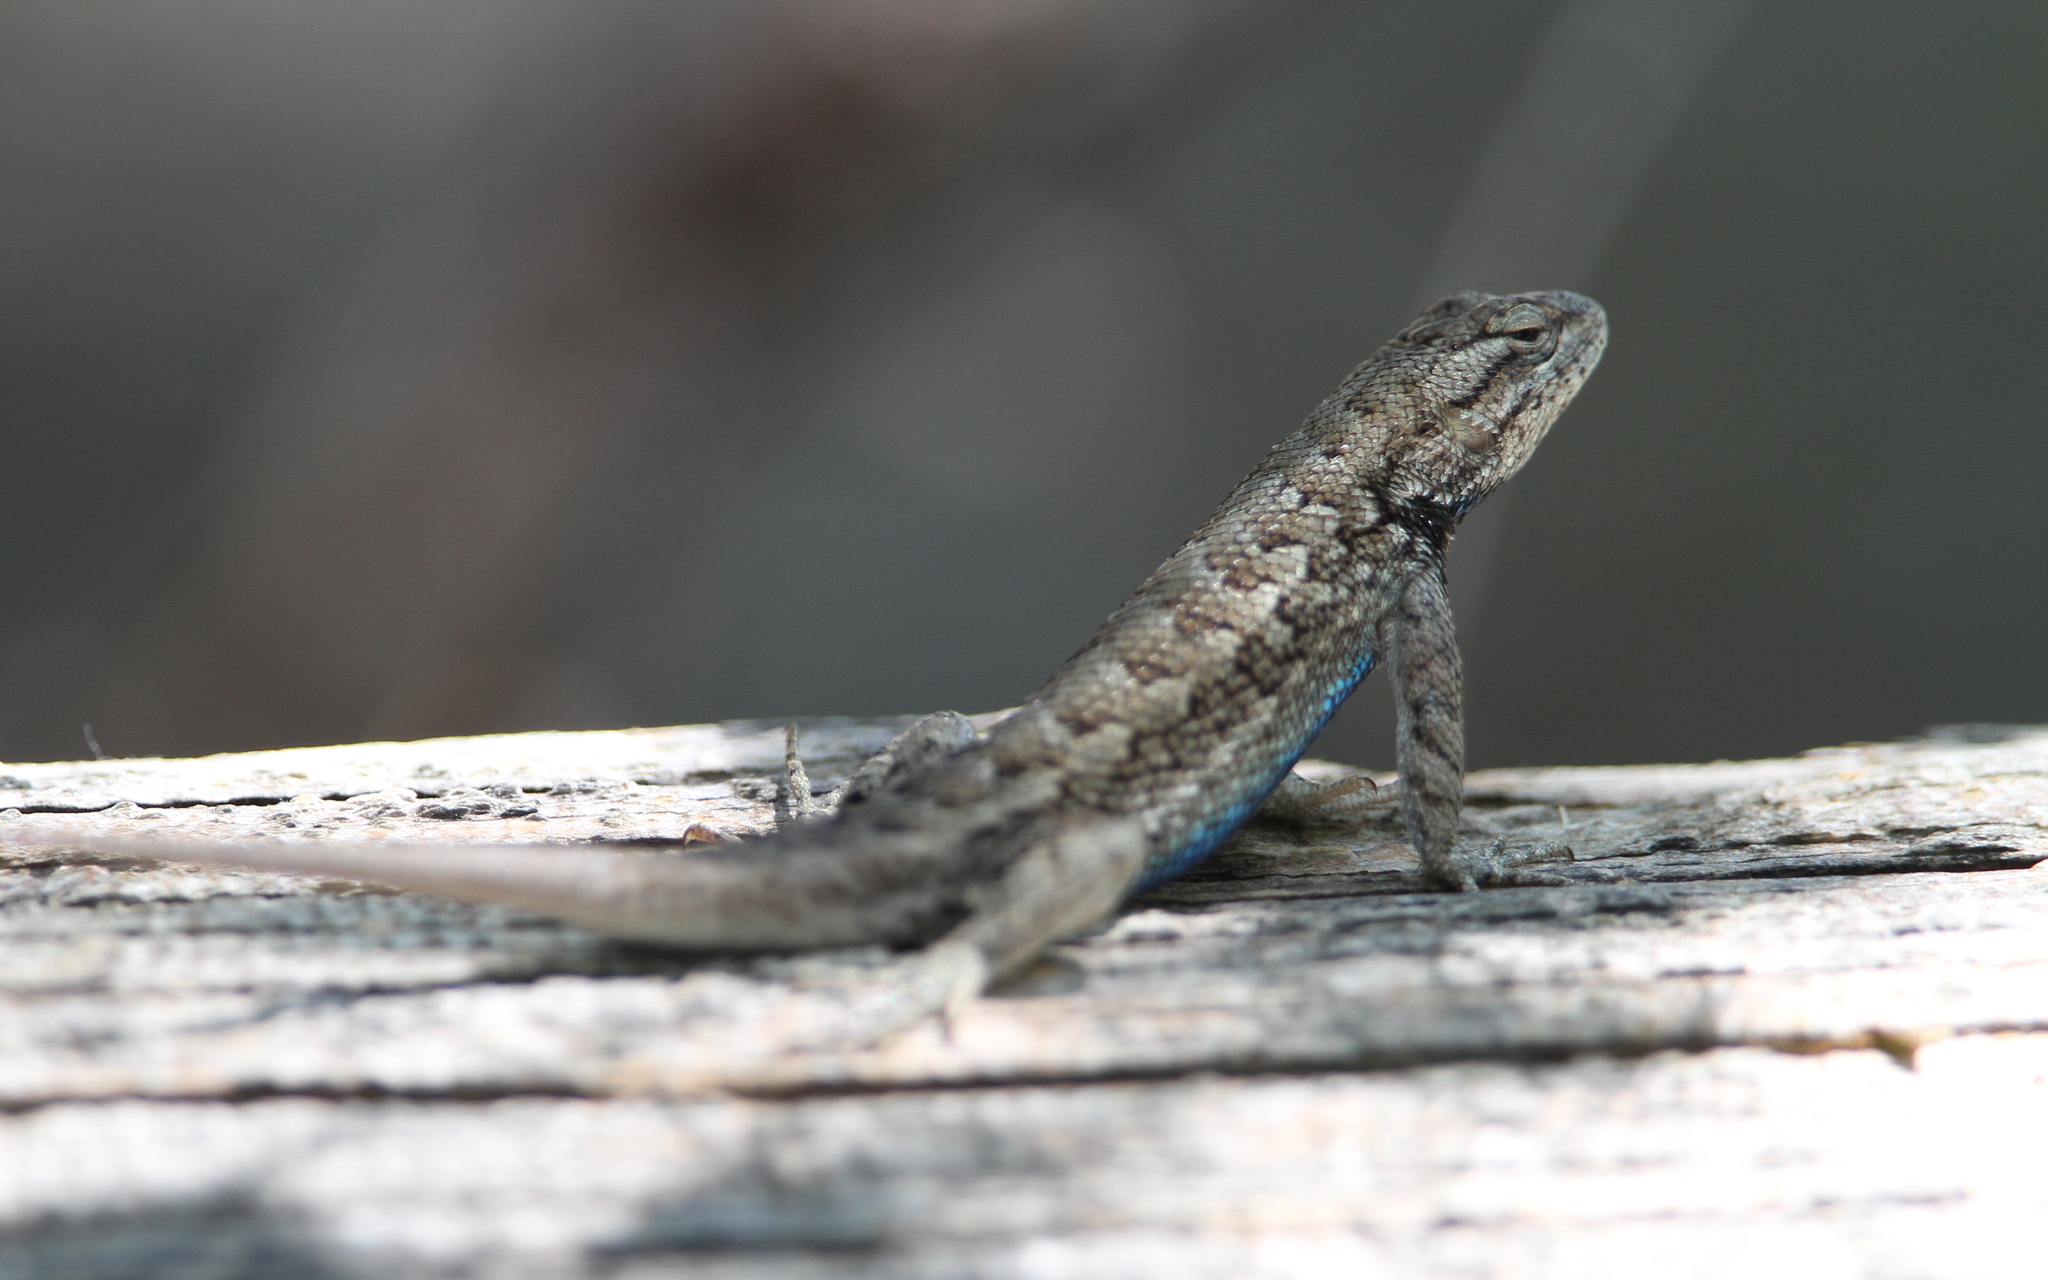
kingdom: Animalia
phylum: Chordata
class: Squamata
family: Phrynosomatidae
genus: Sceloporus
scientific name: Sceloporus consobrinus
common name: Southern prairie lizard
